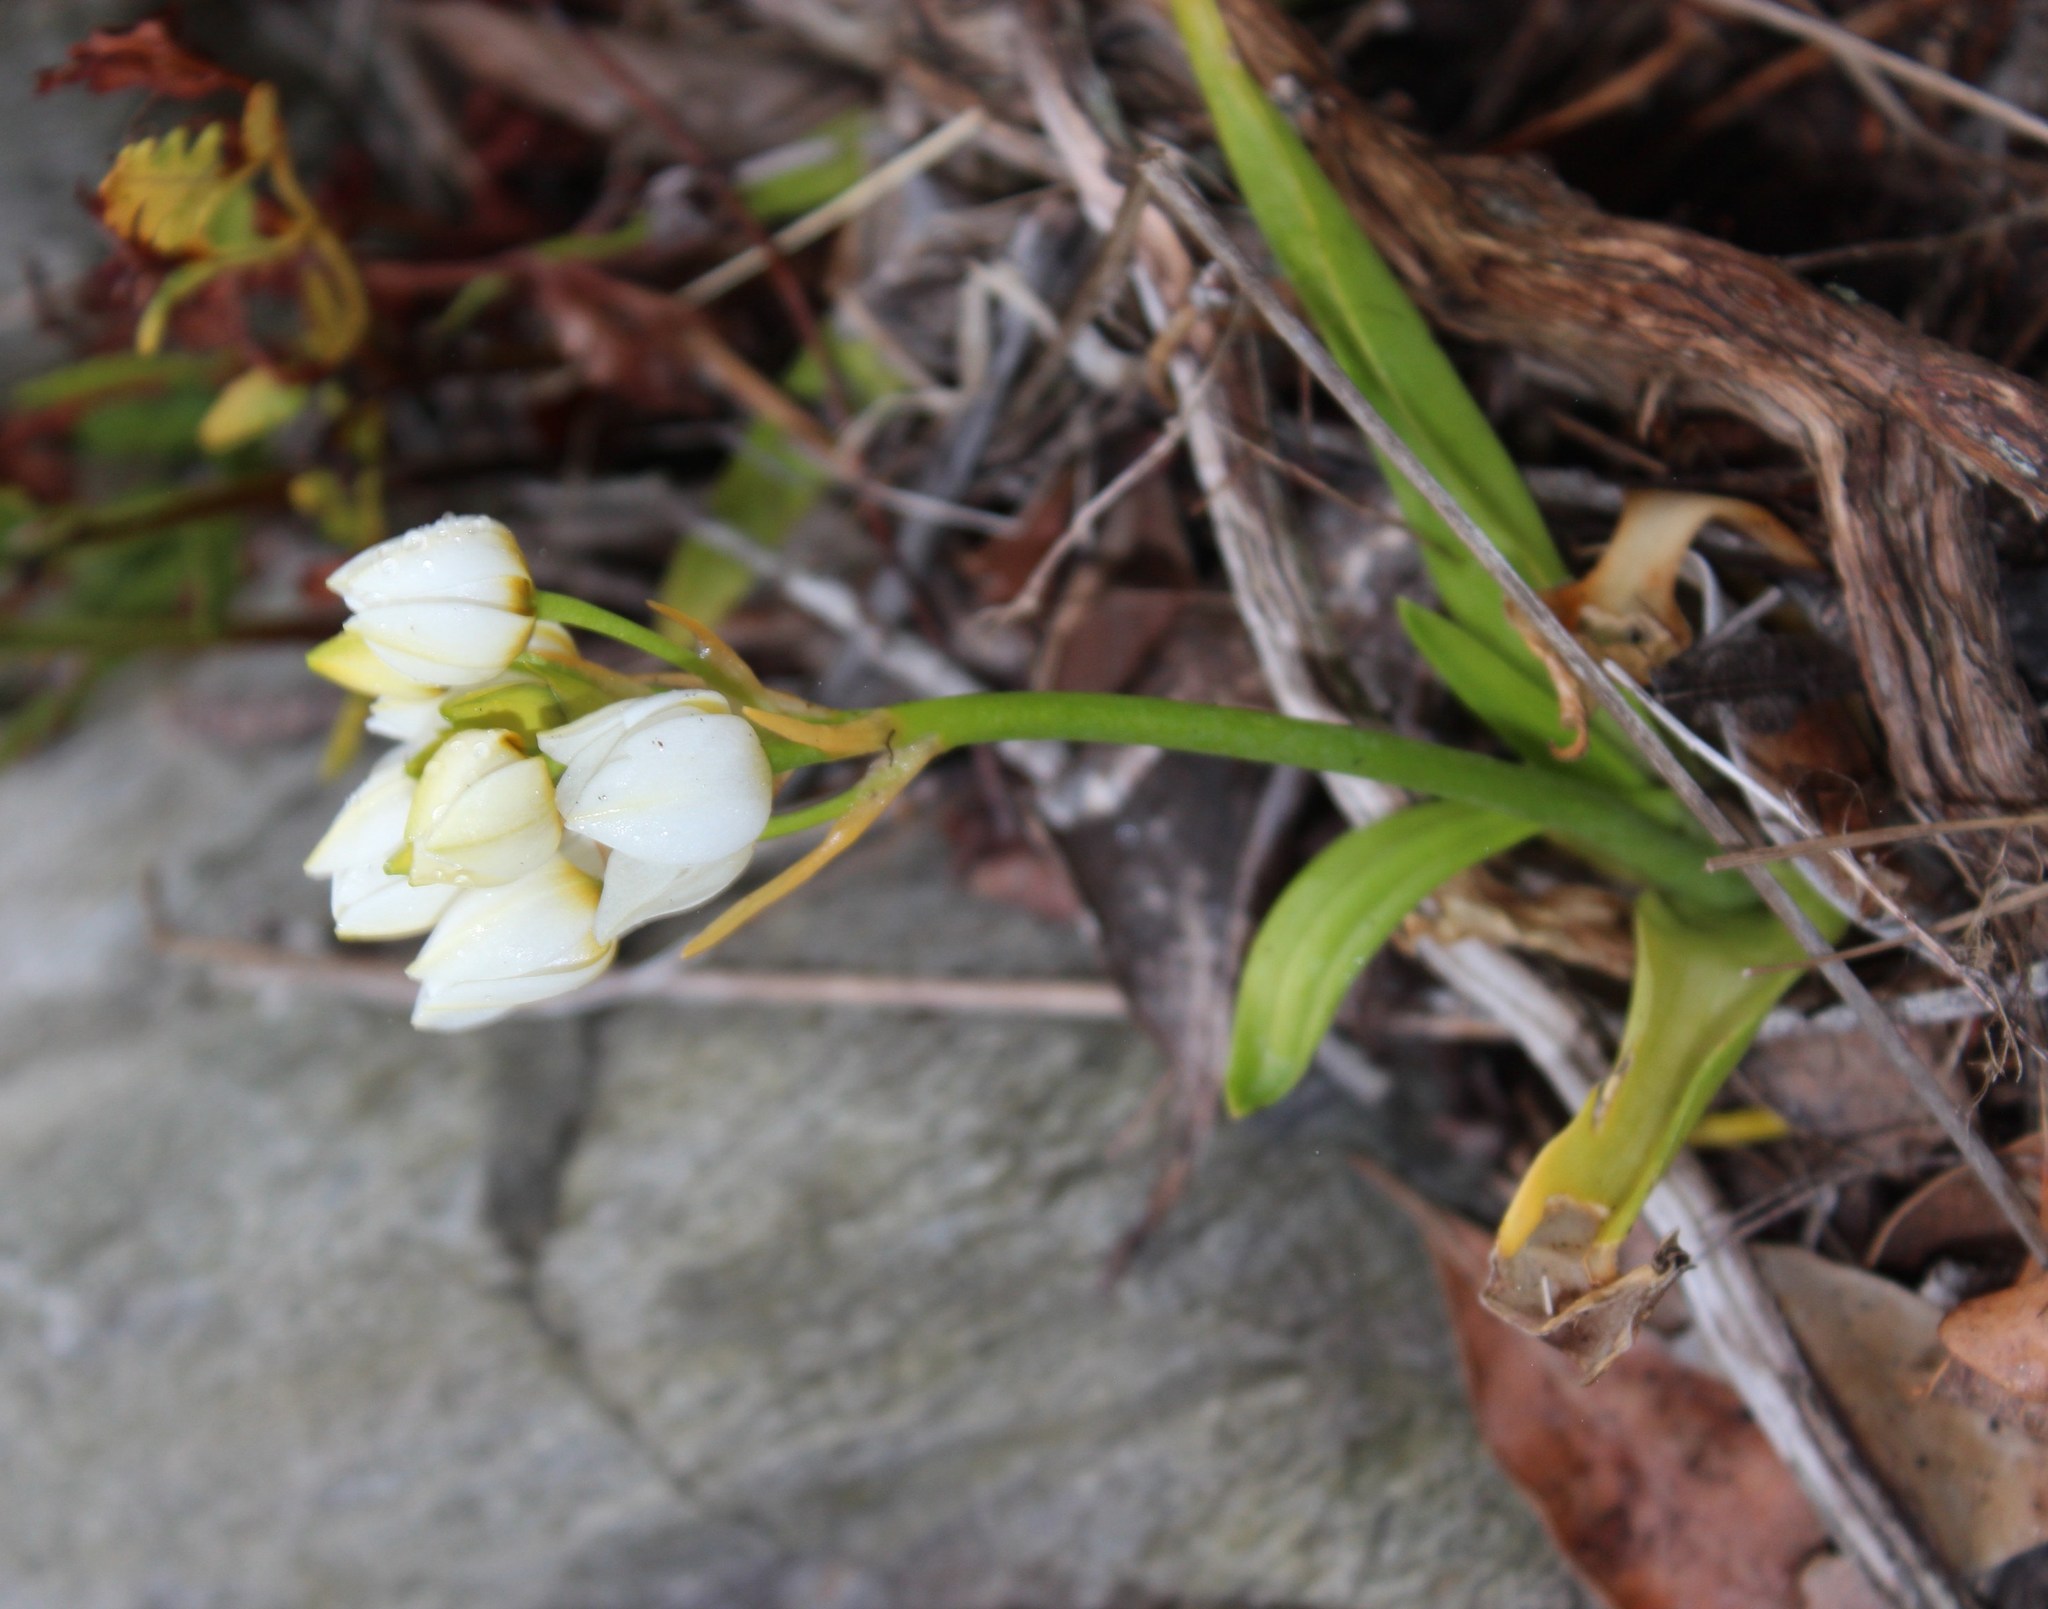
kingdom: Plantae
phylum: Tracheophyta
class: Liliopsida
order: Asparagales
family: Asparagaceae
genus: Ornithogalum
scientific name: Ornithogalum dubium
